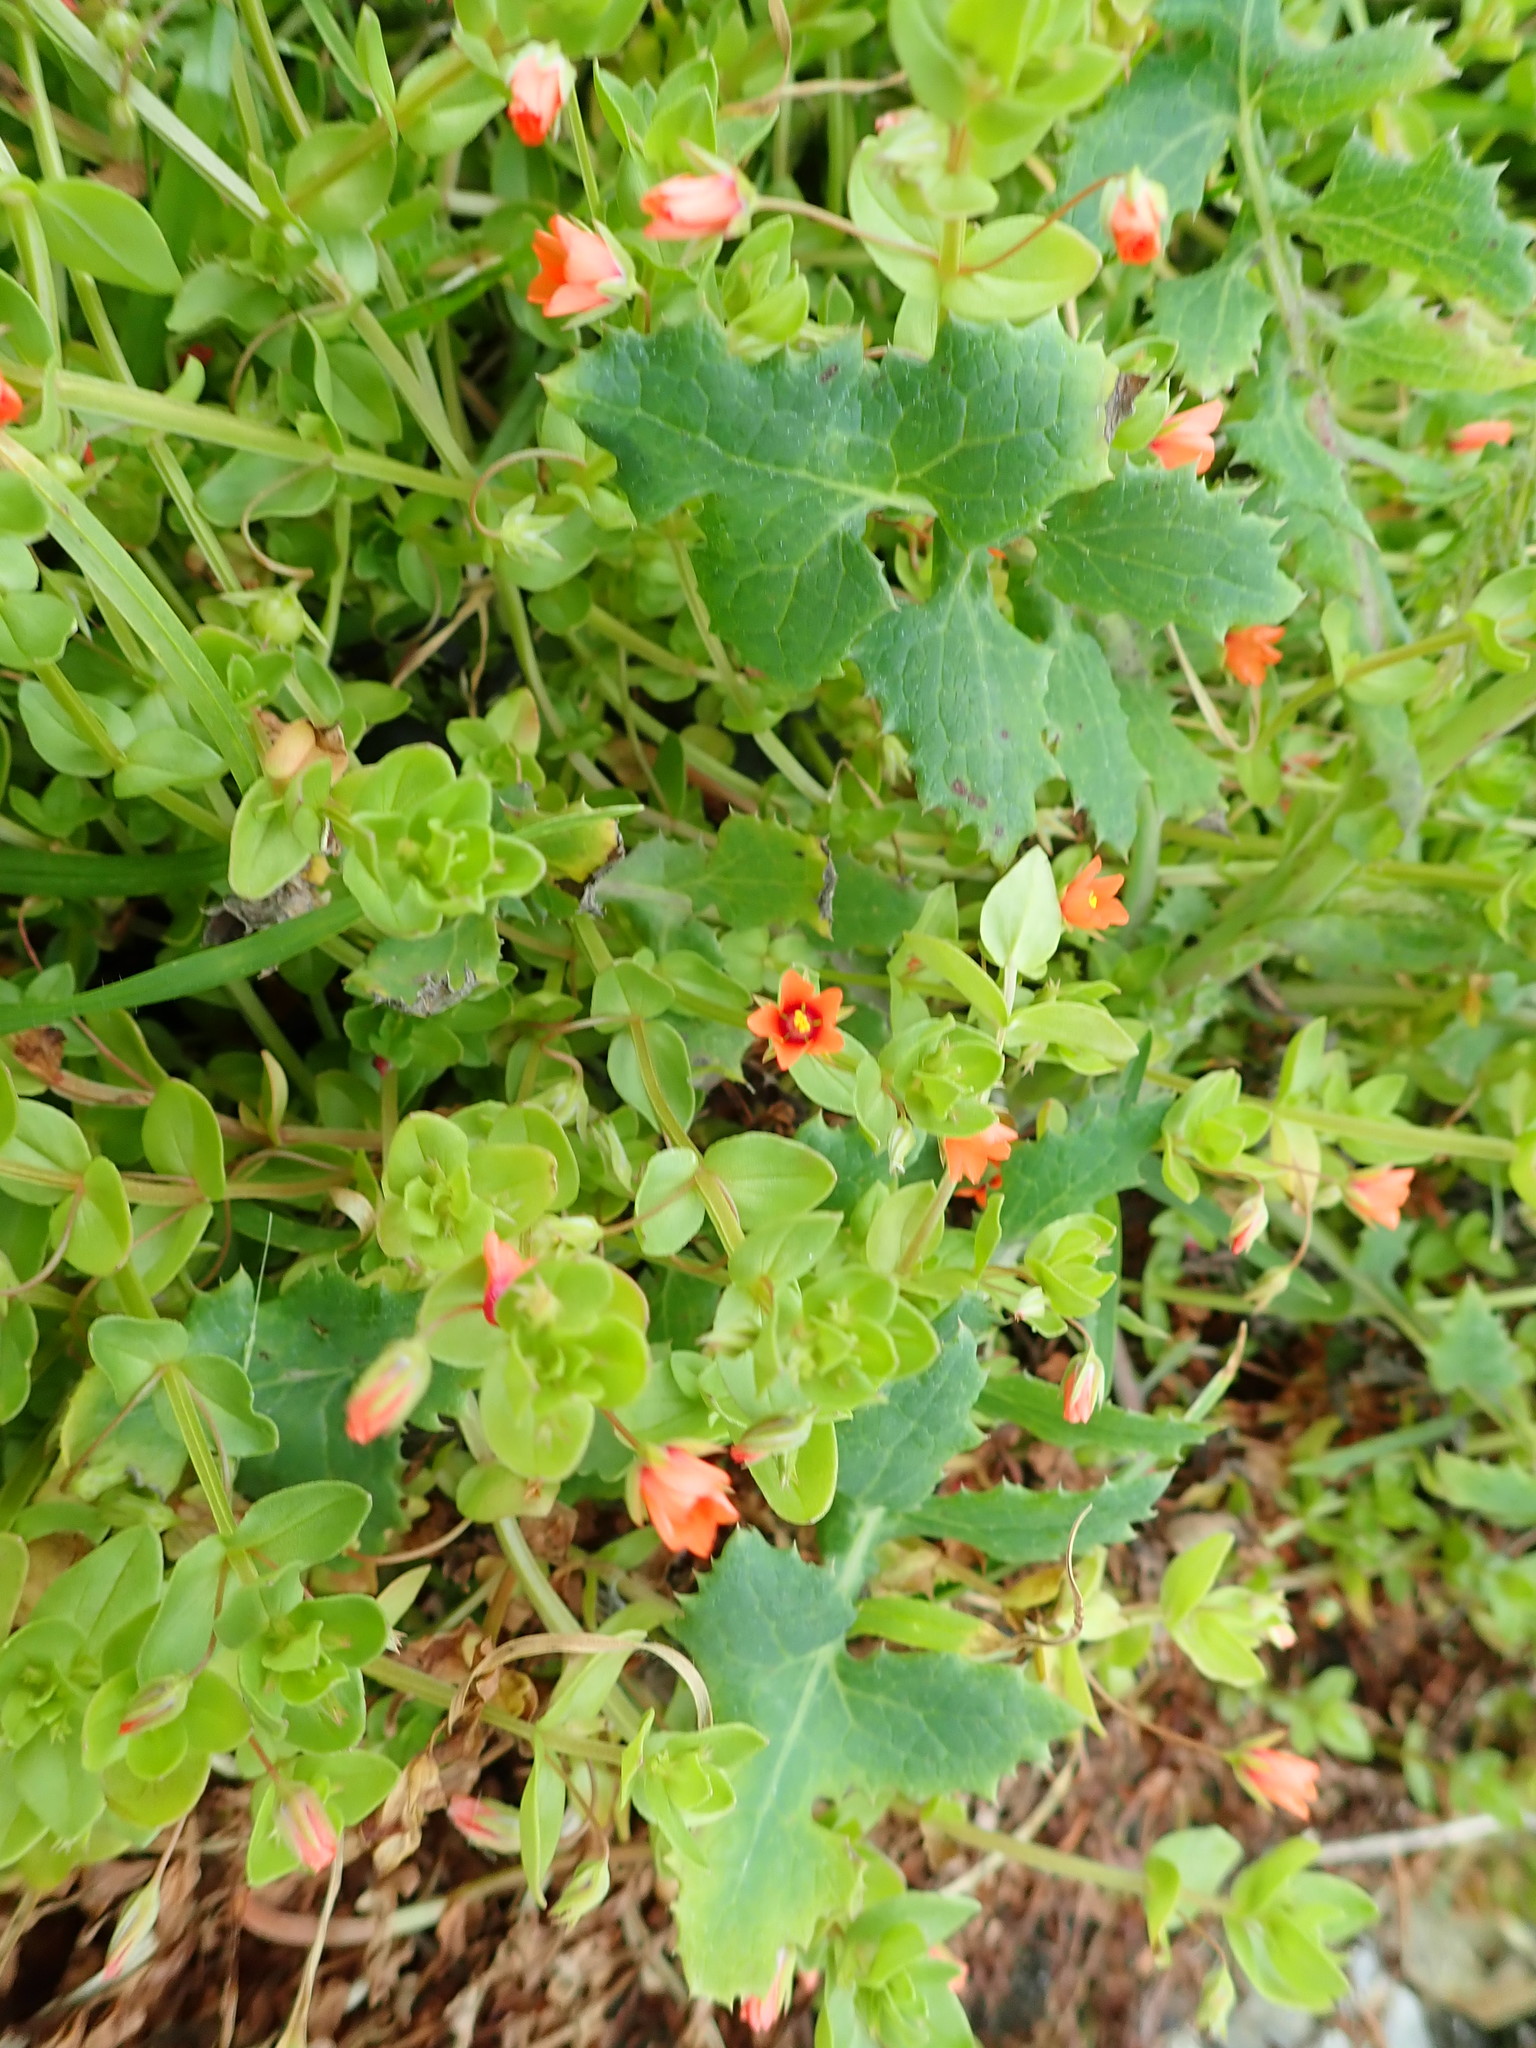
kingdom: Plantae
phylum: Tracheophyta
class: Magnoliopsida
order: Ericales
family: Primulaceae
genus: Lysimachia
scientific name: Lysimachia arvensis
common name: Scarlet pimpernel
